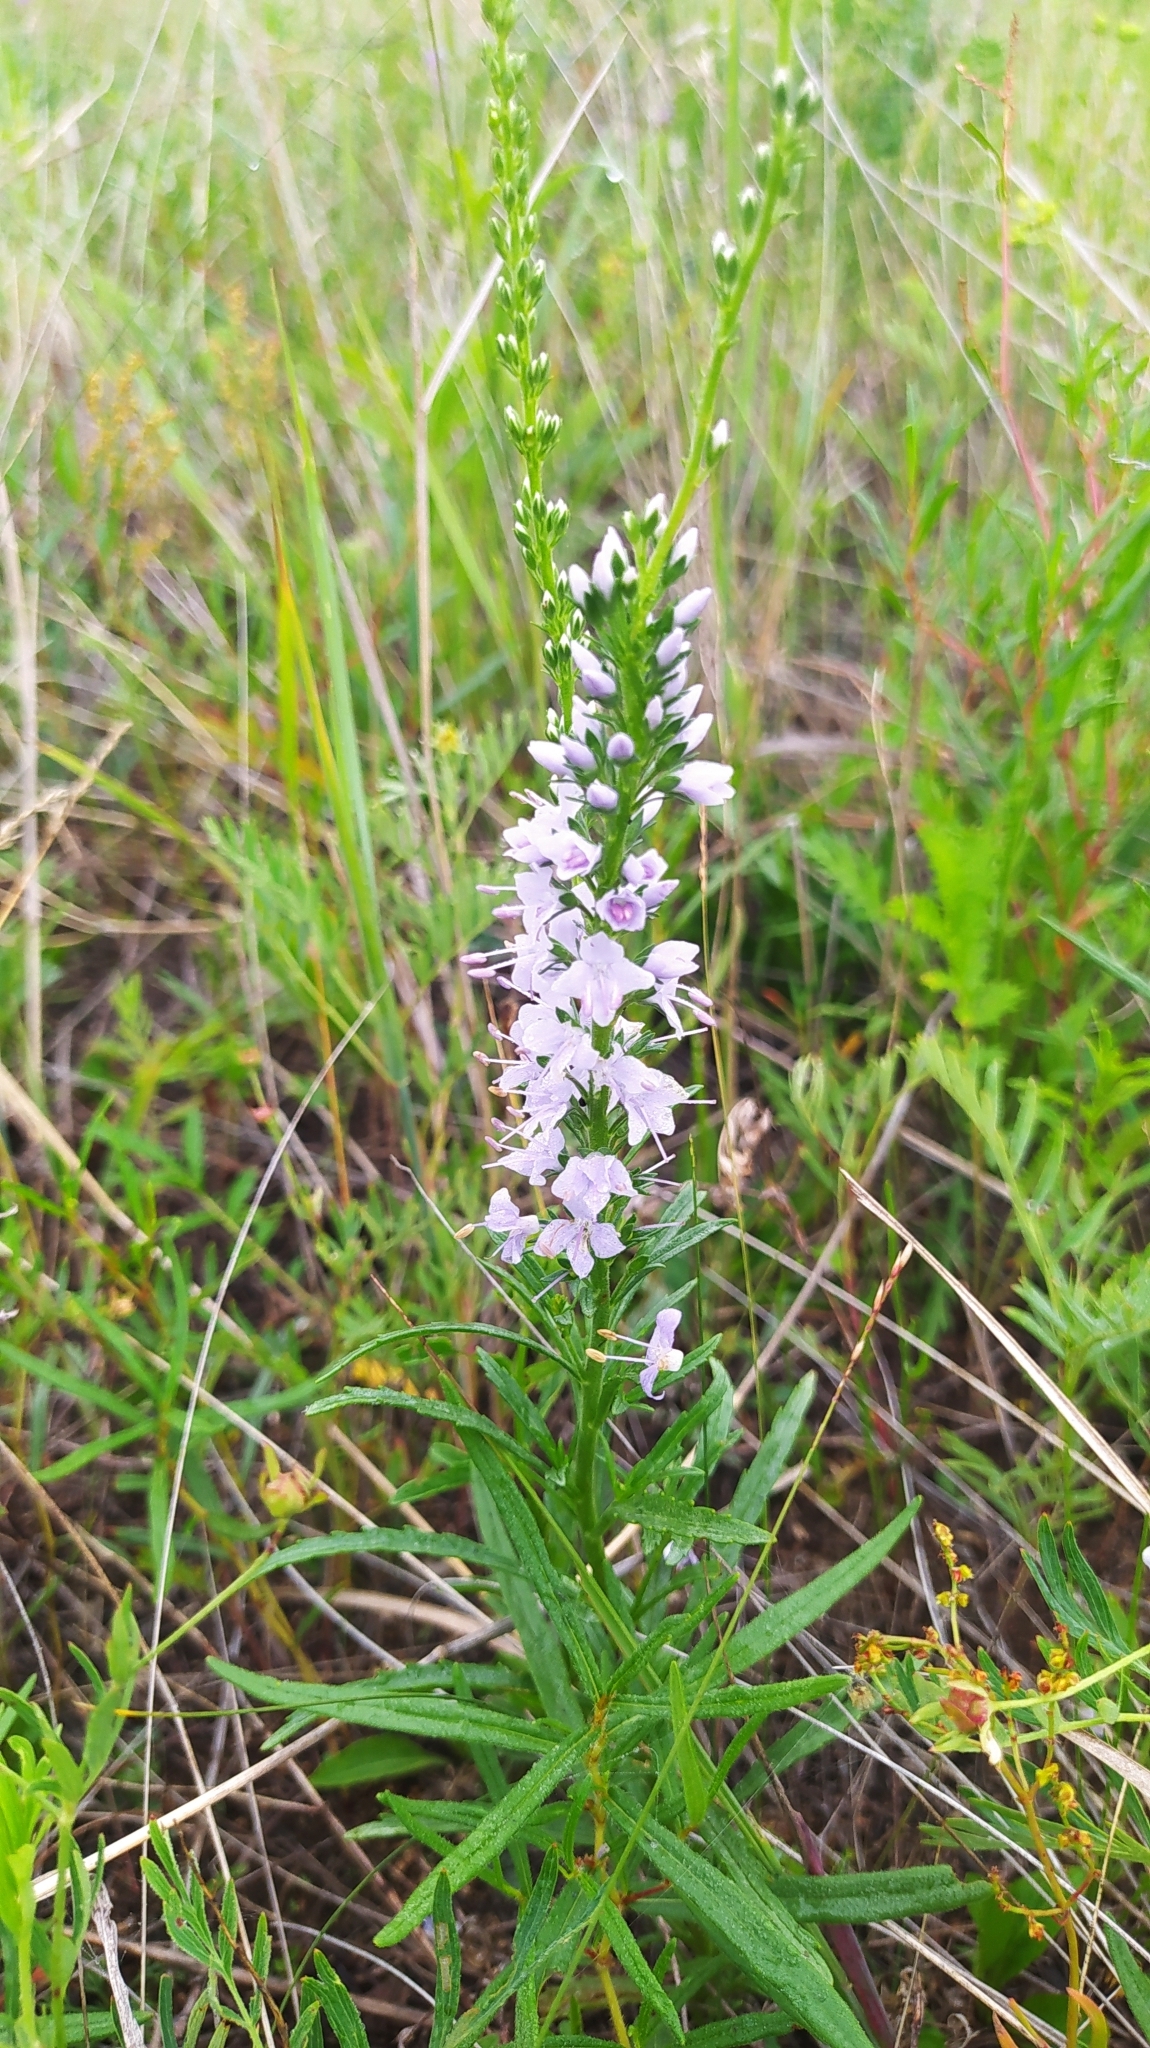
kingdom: Plantae
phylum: Tracheophyta
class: Magnoliopsida
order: Lamiales
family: Plantaginaceae
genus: Veronica
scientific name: Veronica linariifolia
